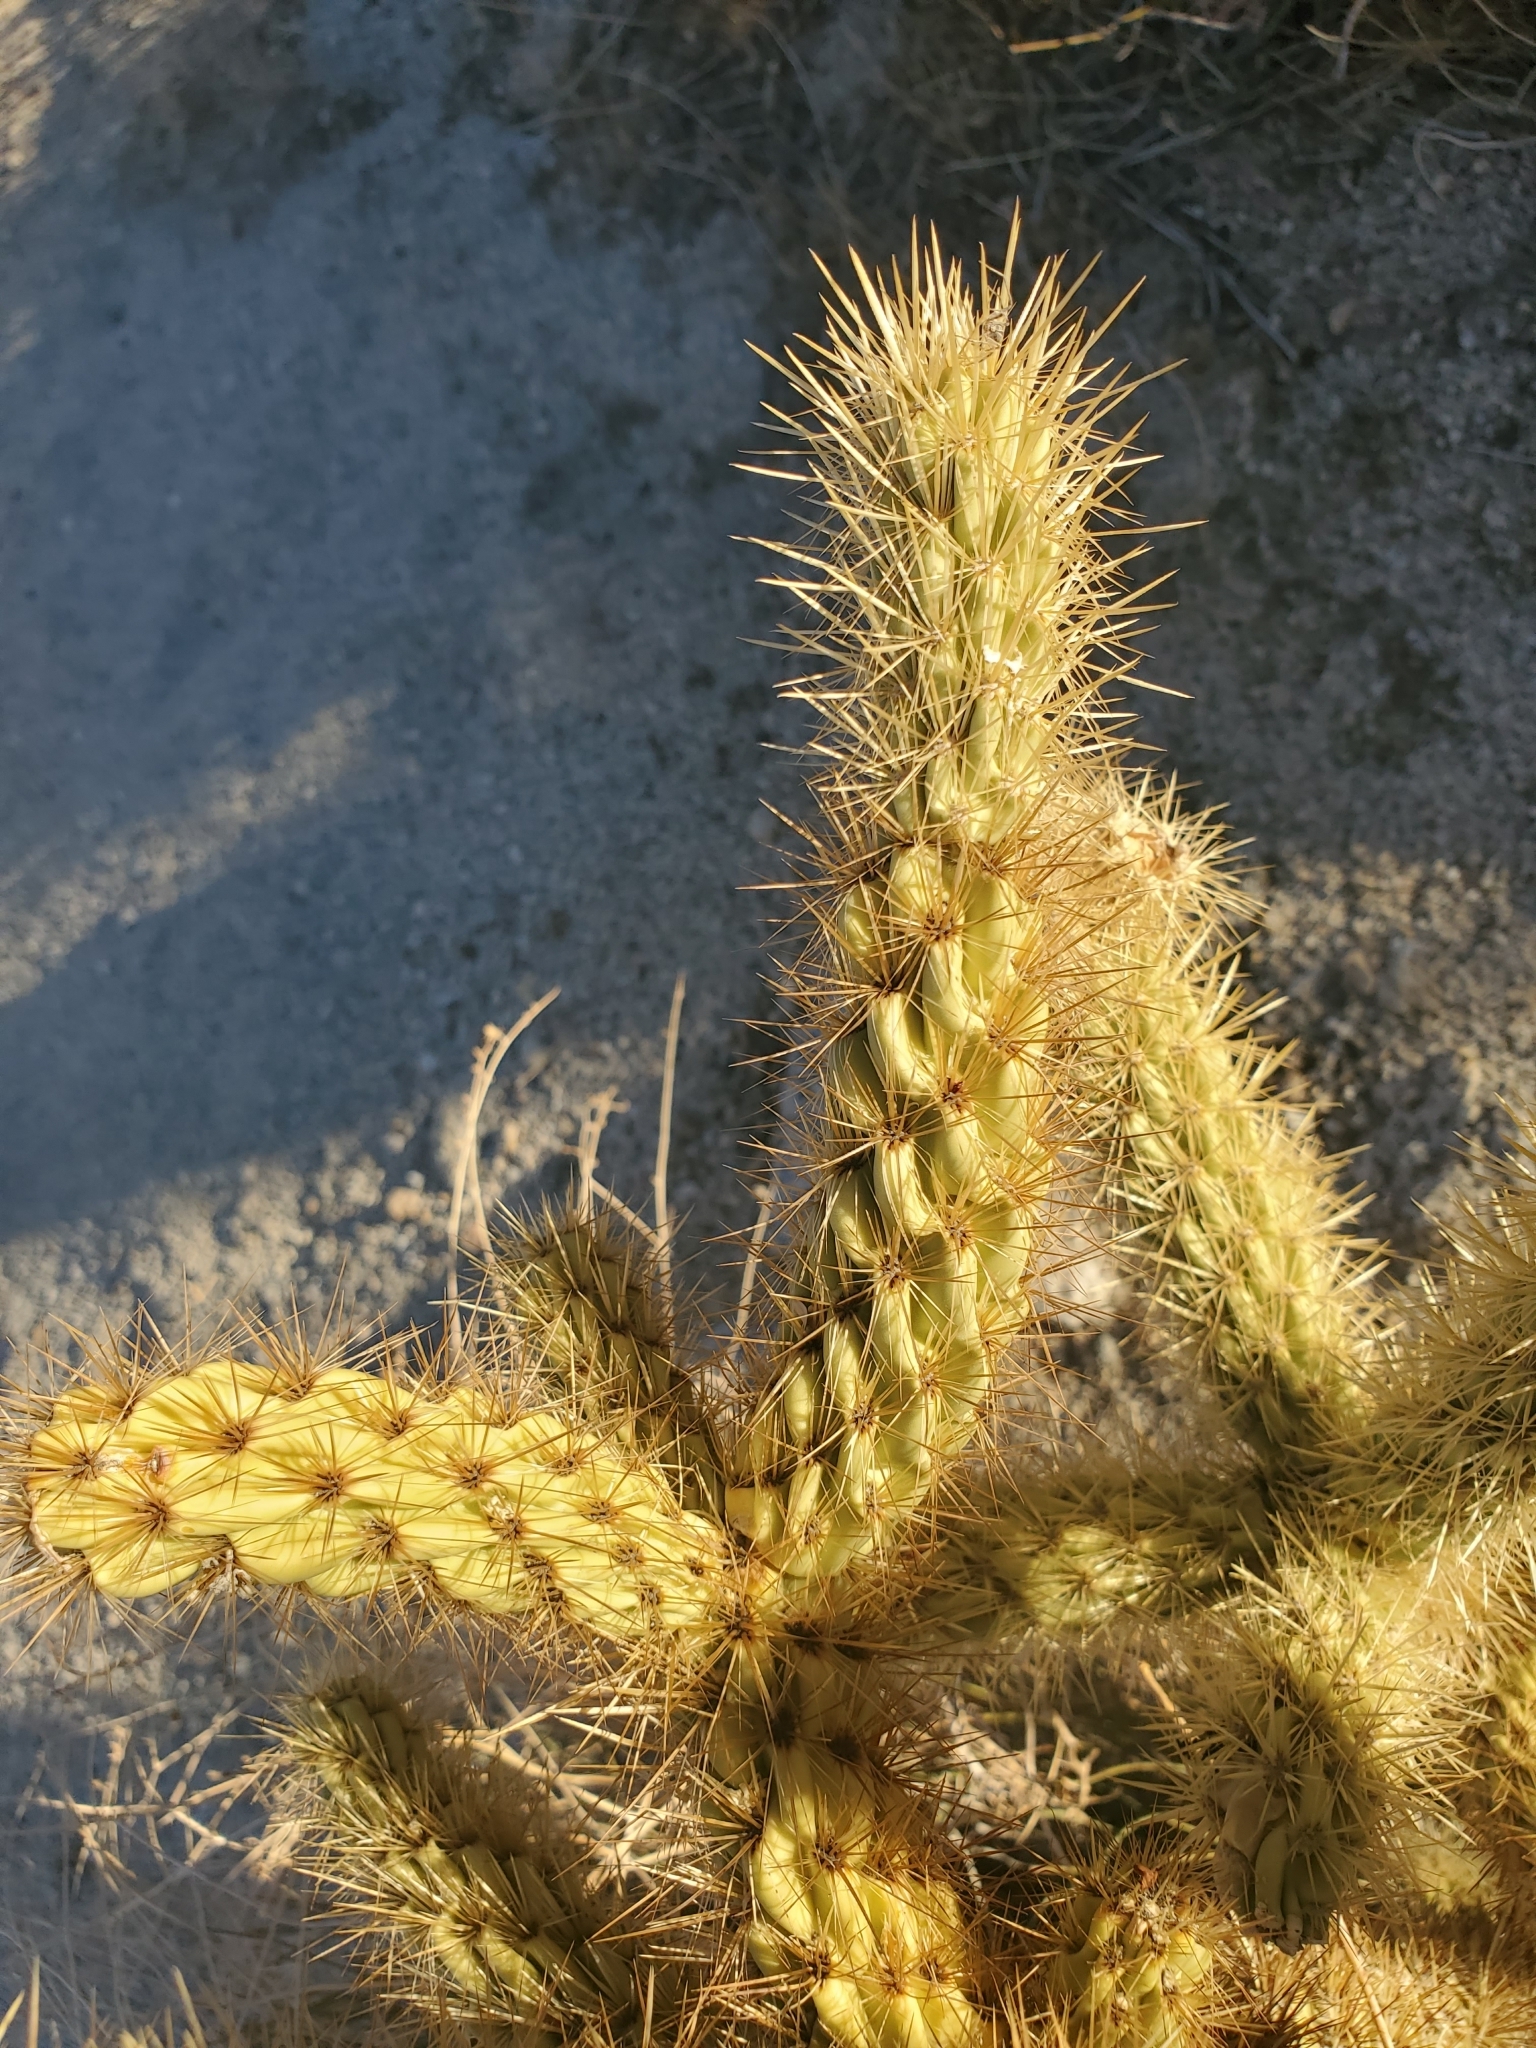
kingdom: Plantae
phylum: Tracheophyta
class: Magnoliopsida
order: Caryophyllales
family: Cactaceae
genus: Cylindropuntia
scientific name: Cylindropuntia ganderi
